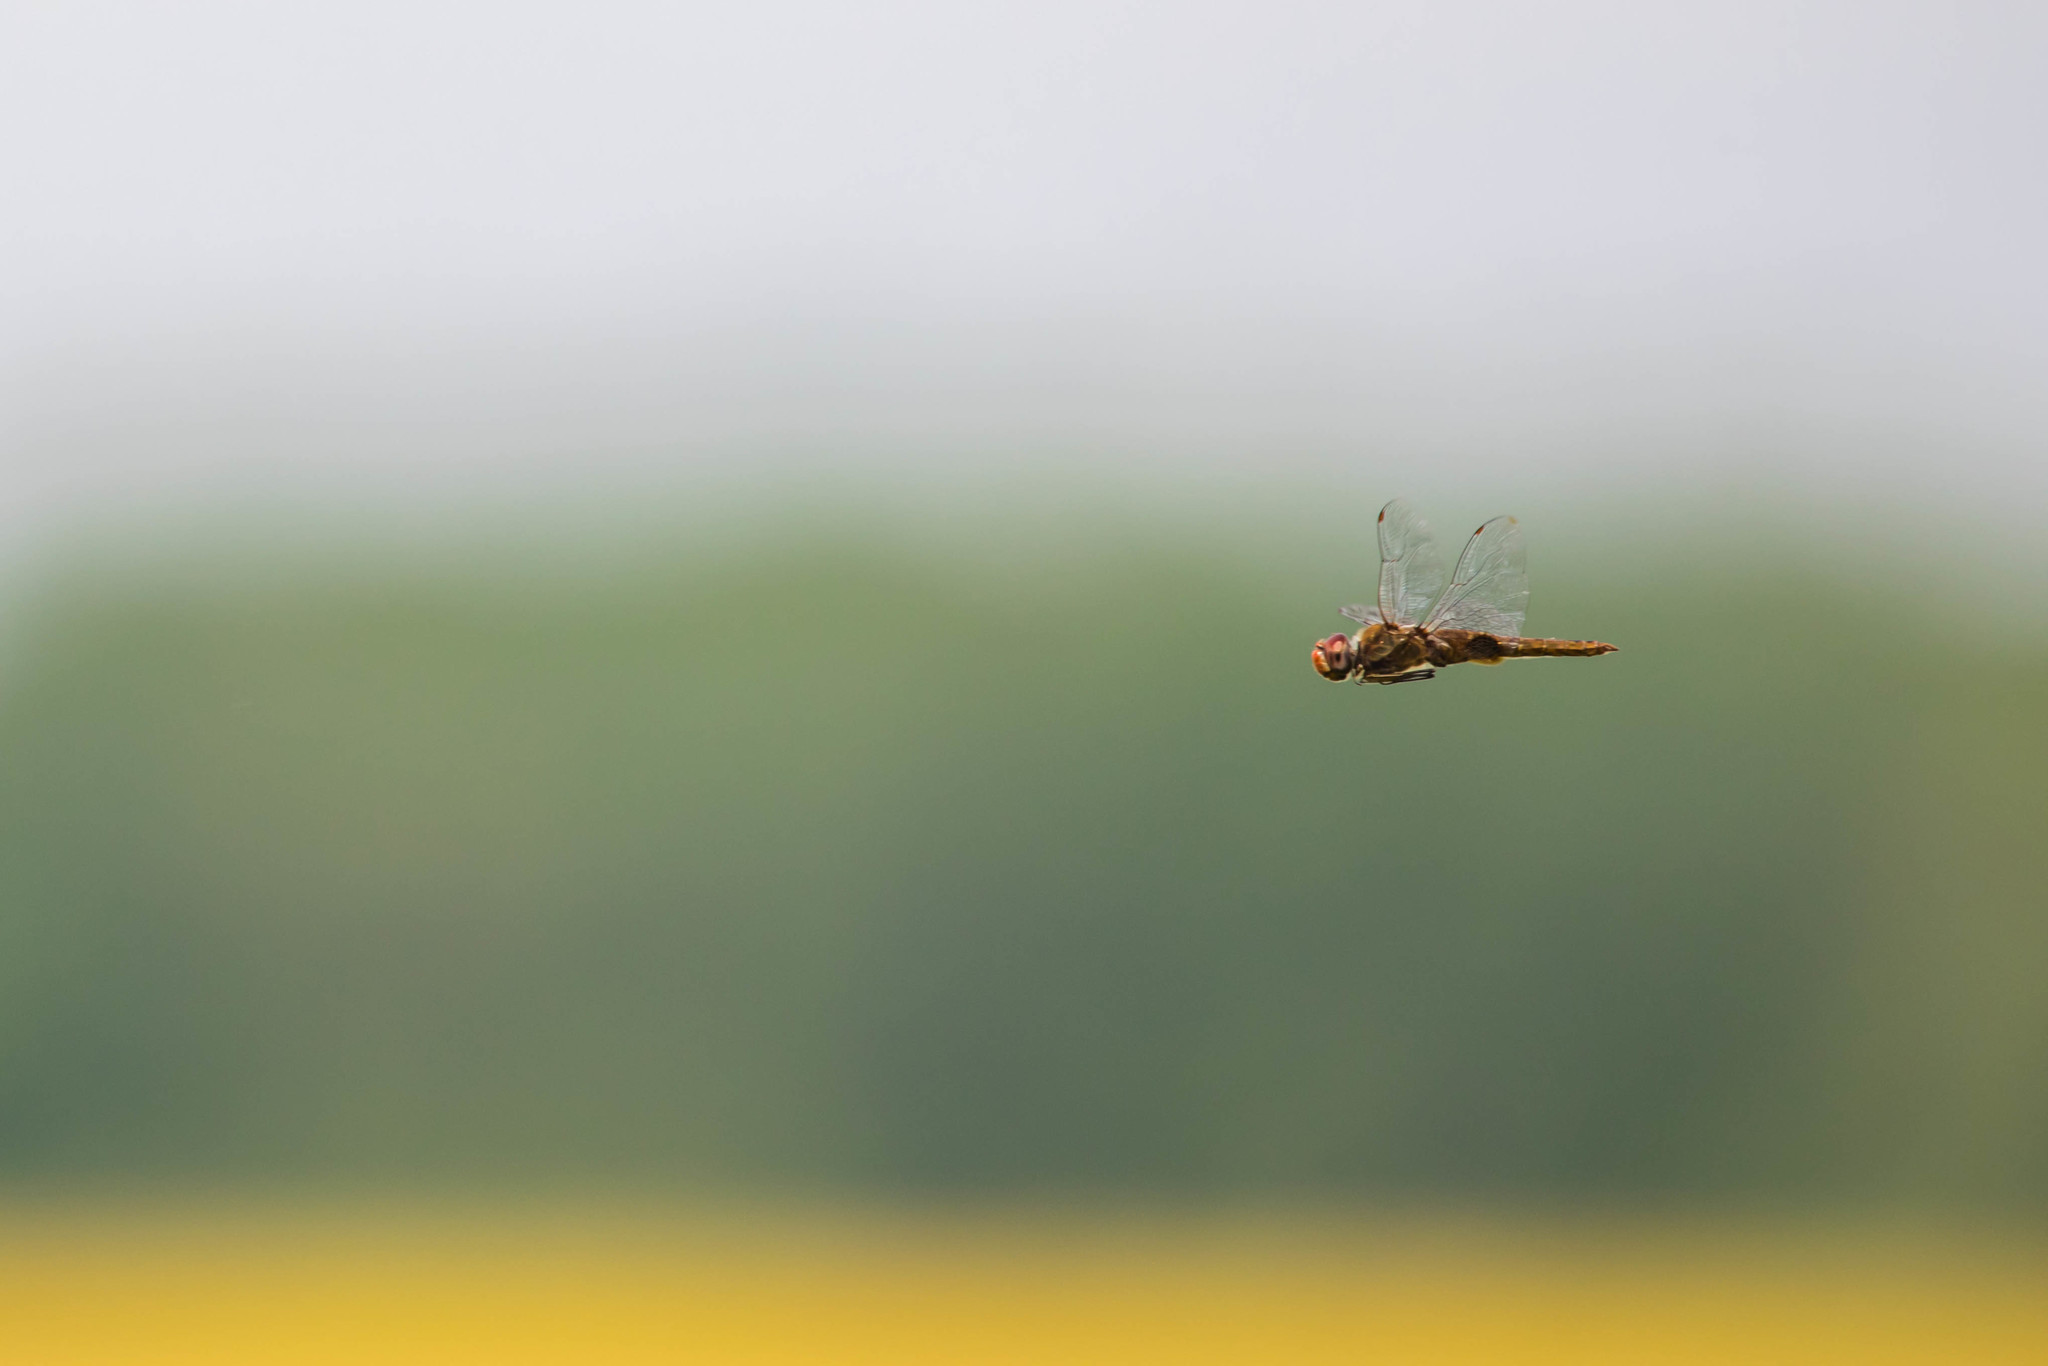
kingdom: Animalia
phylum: Arthropoda
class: Insecta
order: Odonata
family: Libellulidae
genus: Pantala
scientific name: Pantala hymenaea
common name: Spot-winged glider
